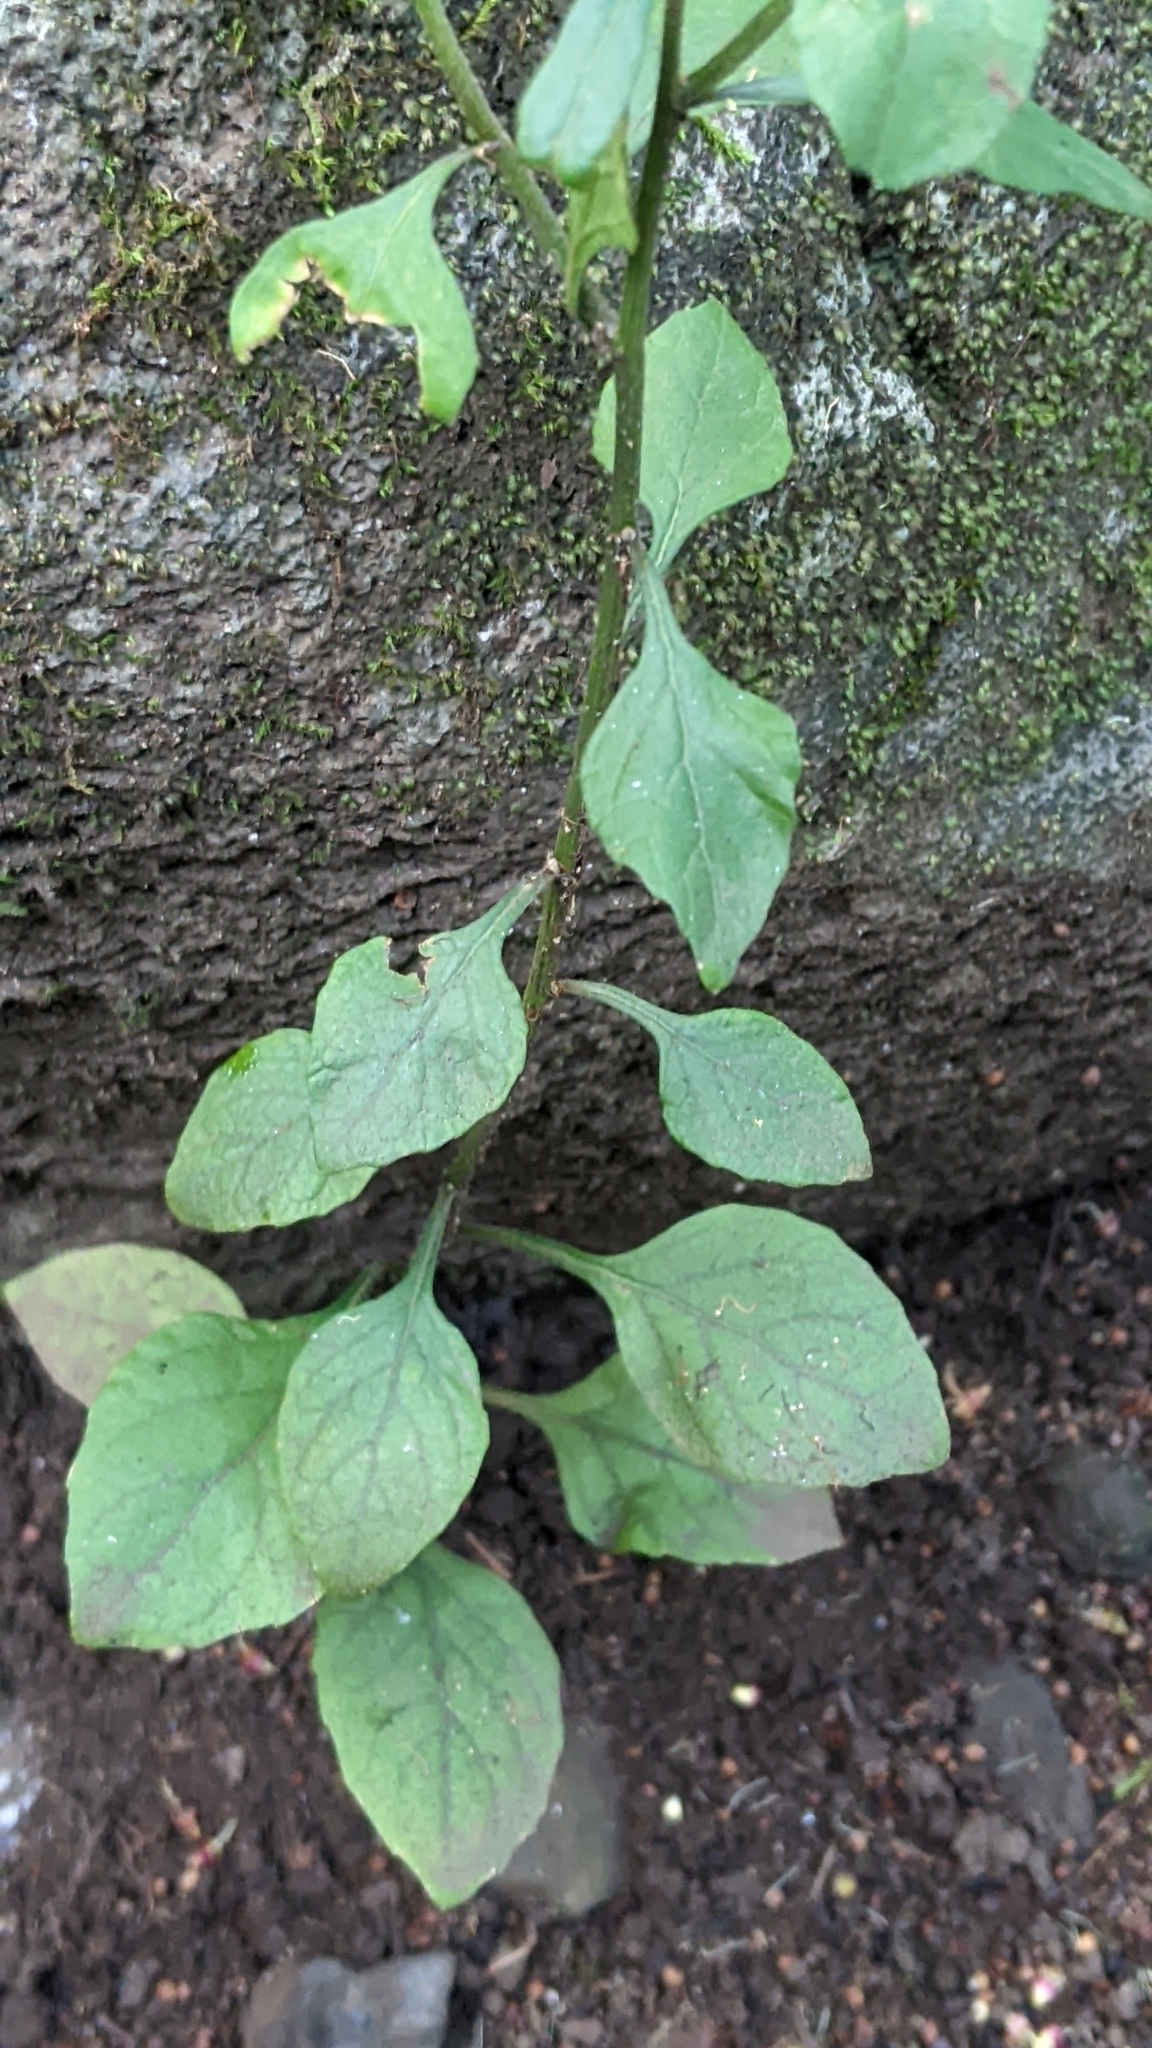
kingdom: Plantae
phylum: Tracheophyta
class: Magnoliopsida
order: Asterales
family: Asteraceae
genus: Cyanthillium
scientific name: Cyanthillium cinereum
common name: Little ironweed
